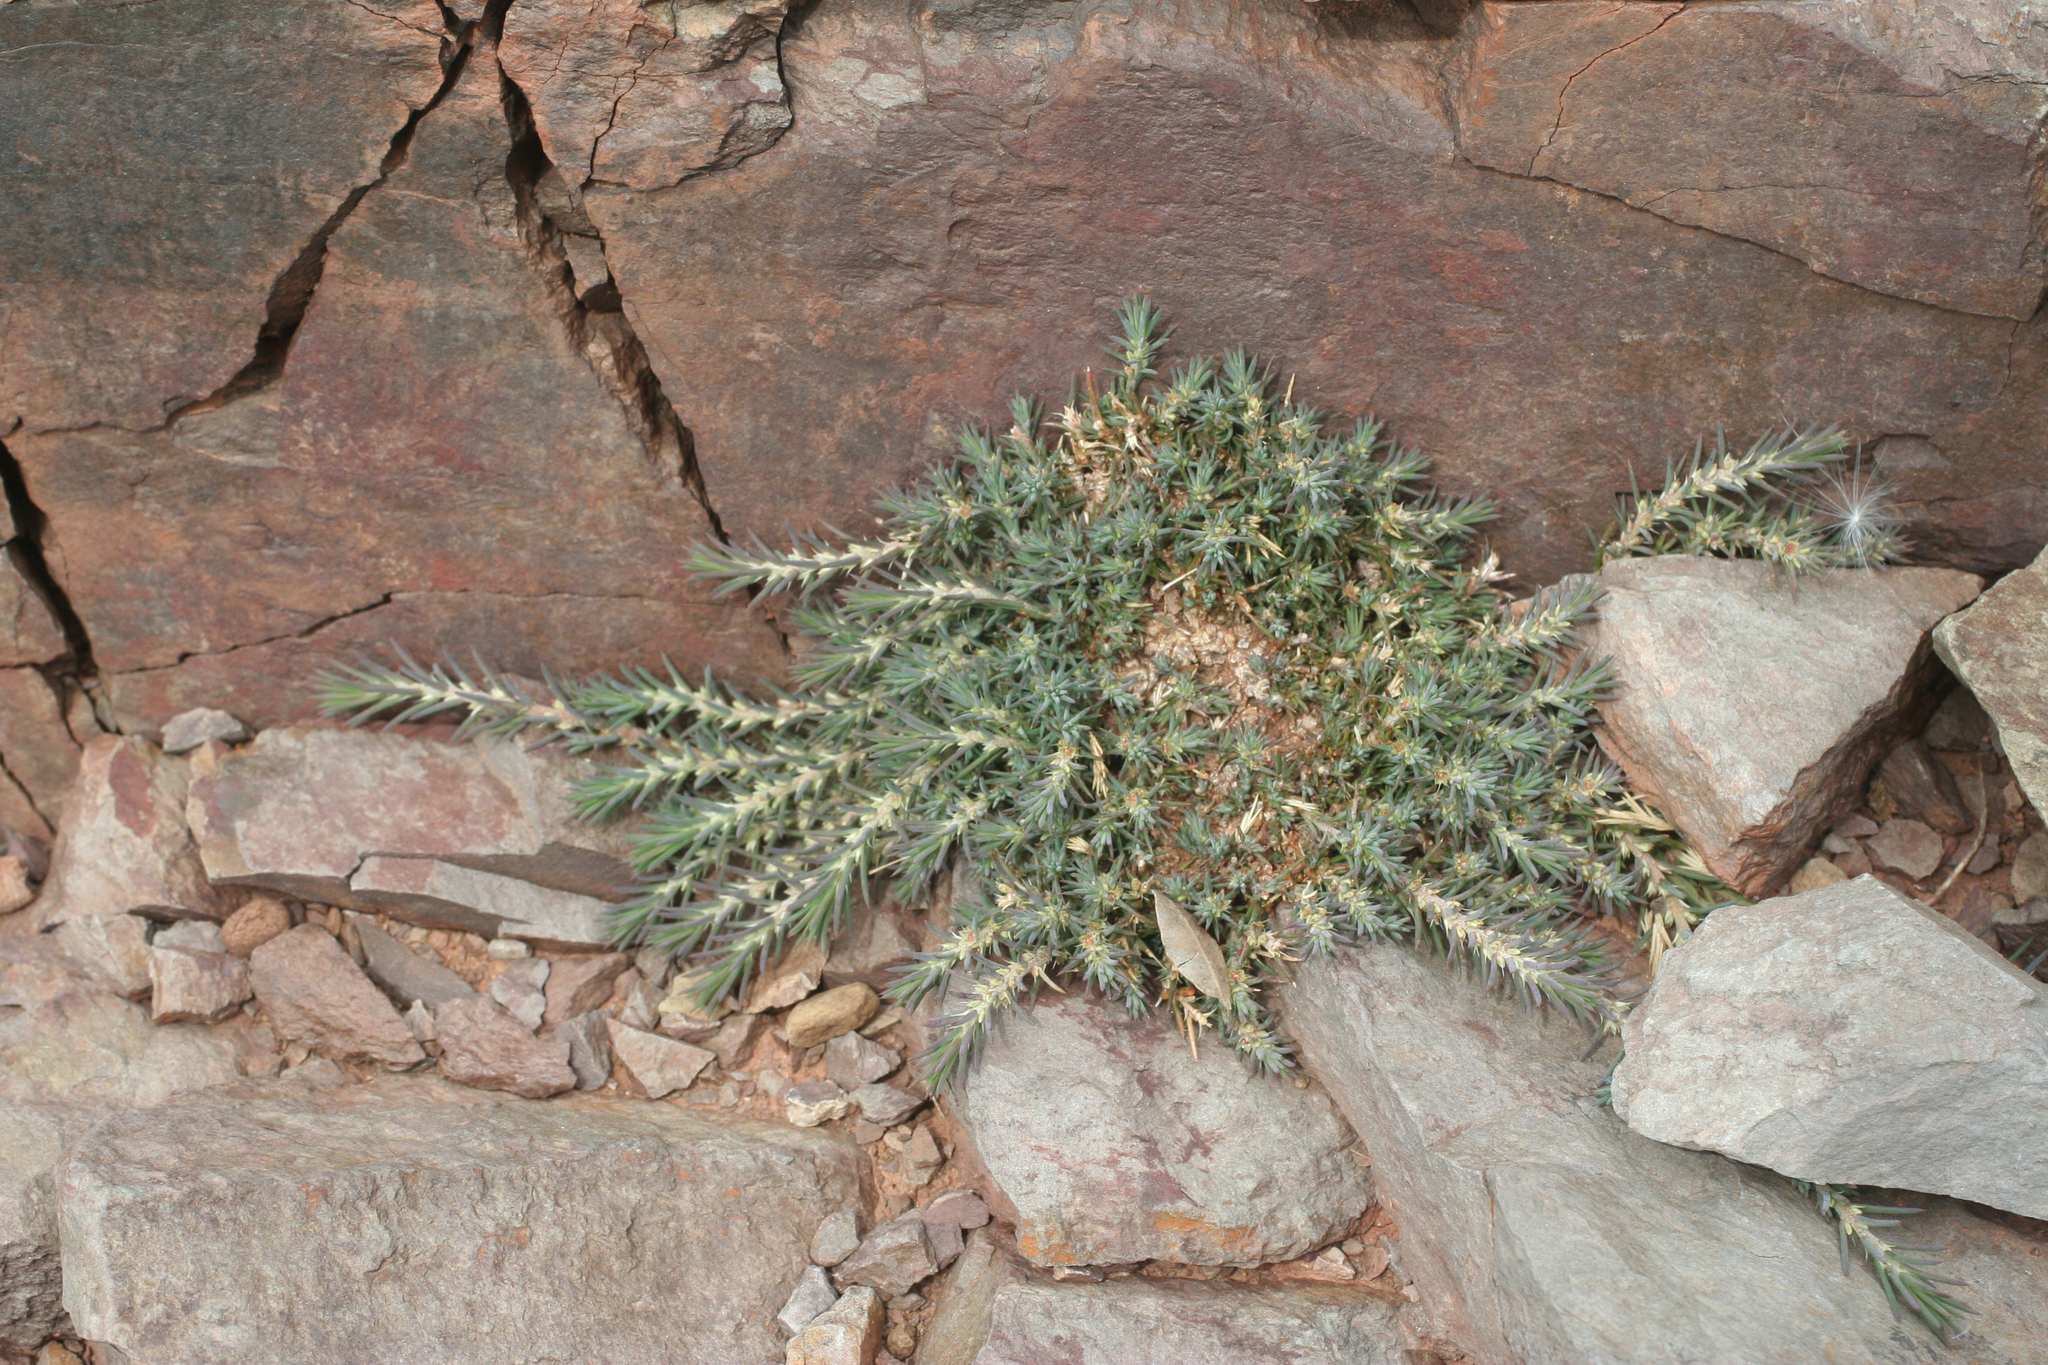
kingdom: Plantae
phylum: Tracheophyta
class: Magnoliopsida
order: Caryophyllales
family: Amaranthaceae
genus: Polycnemum
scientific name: Polycnemum fontanesii
